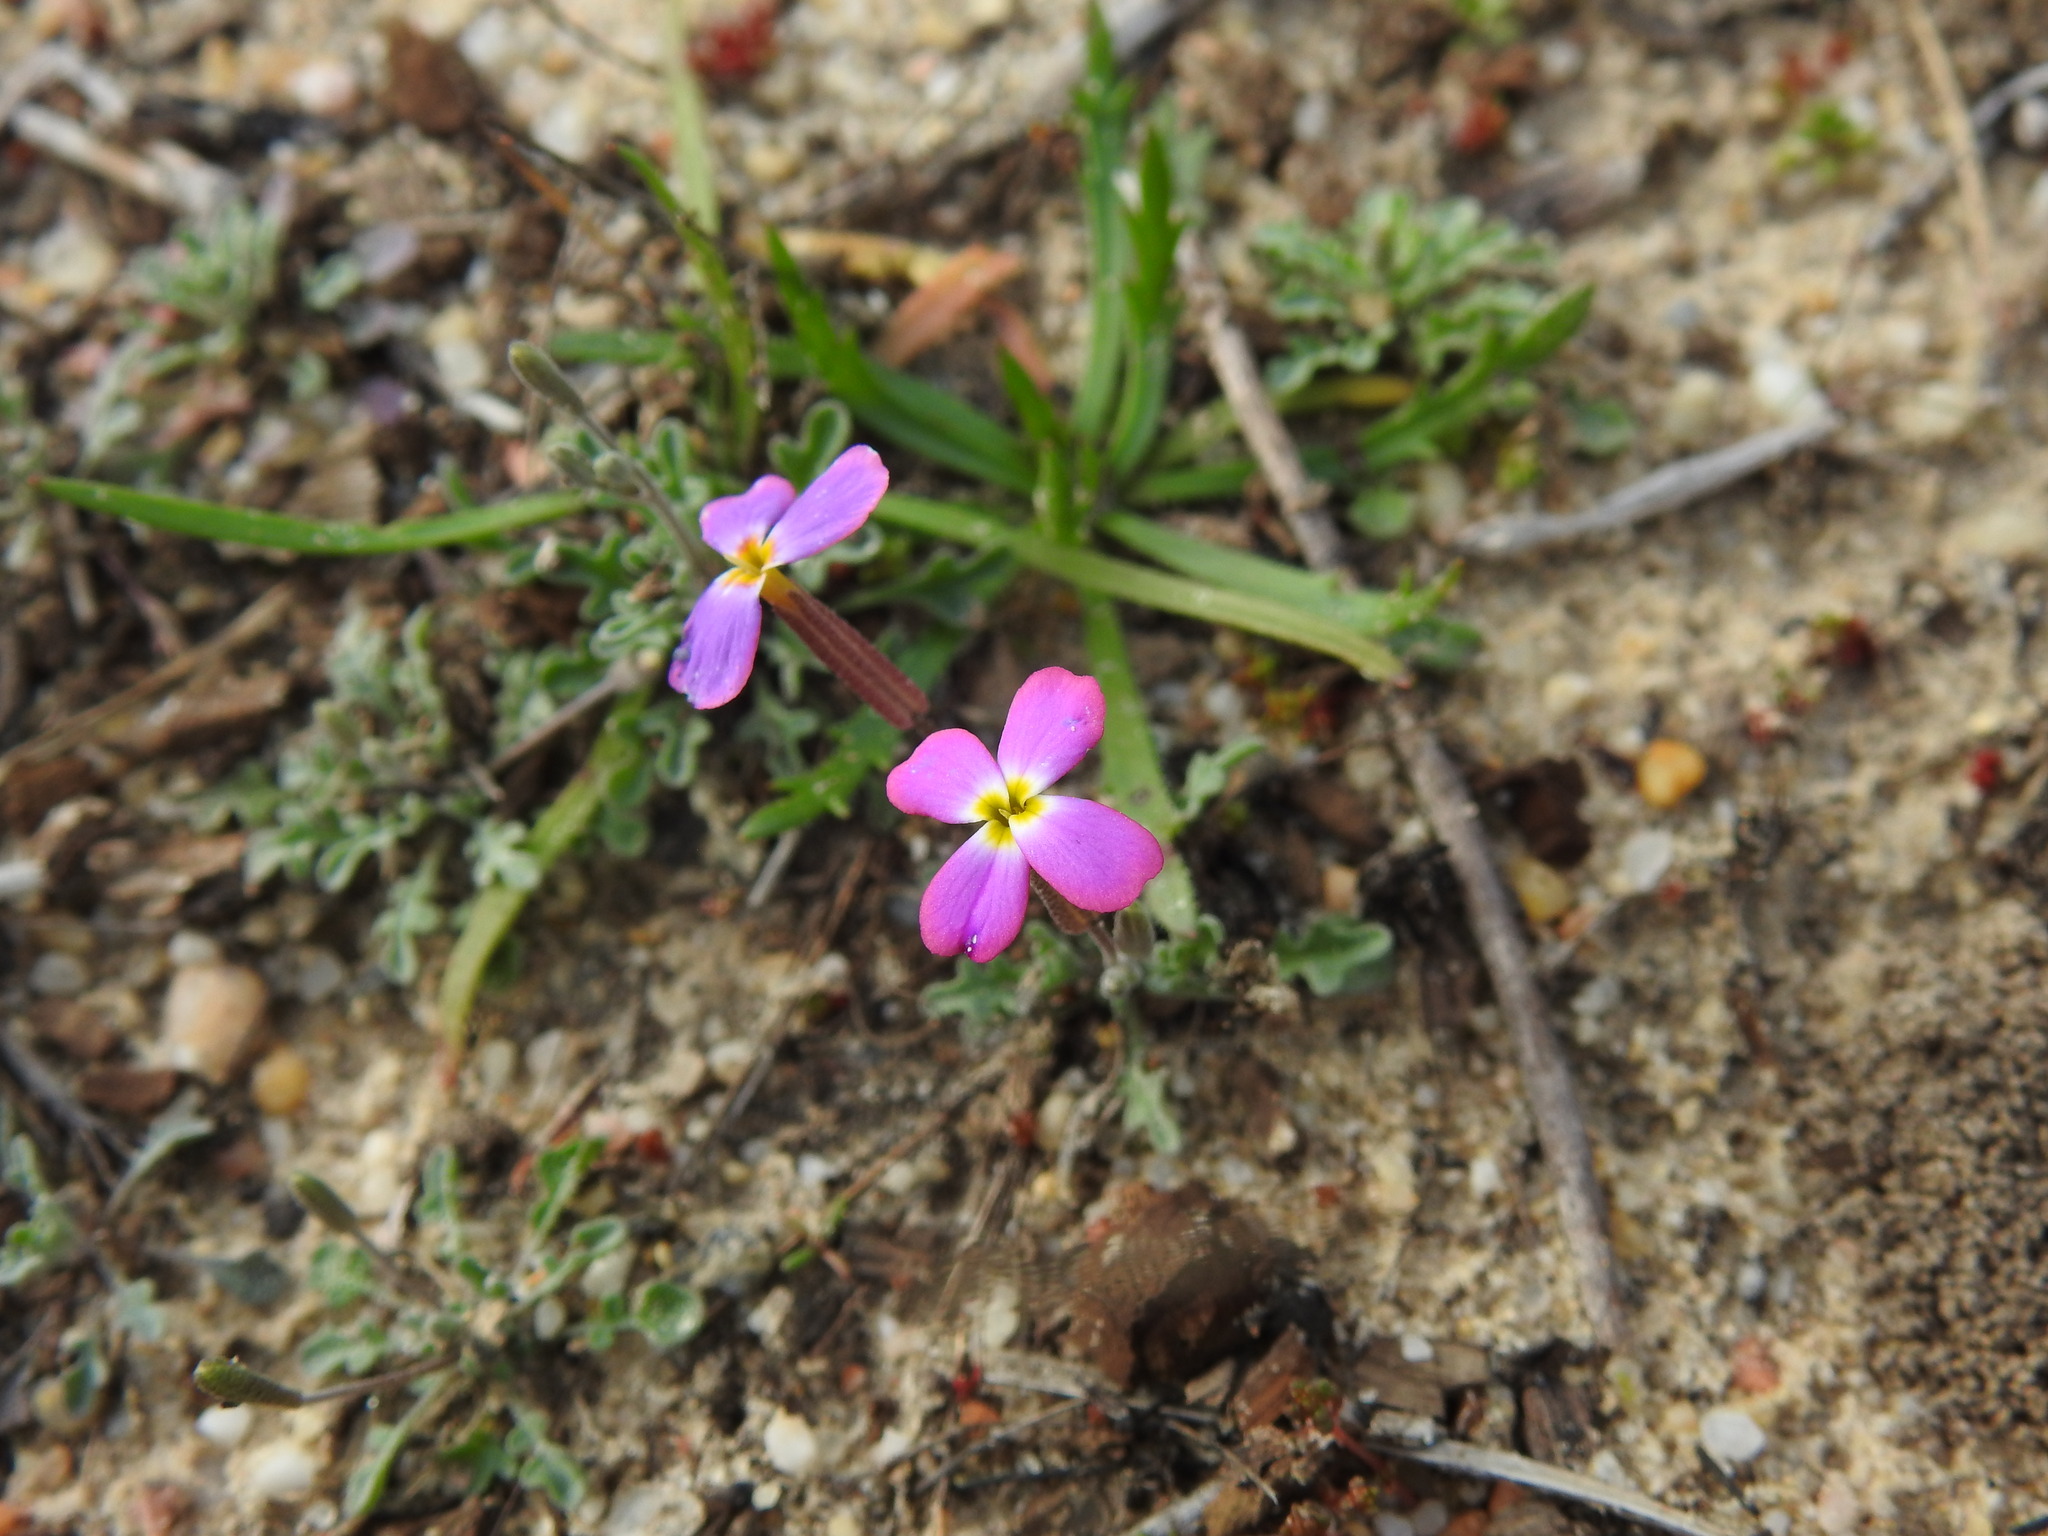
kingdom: Plantae
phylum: Tracheophyta
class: Magnoliopsida
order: Brassicales
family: Brassicaceae
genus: Marcuskochia
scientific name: Marcuskochia triloba
